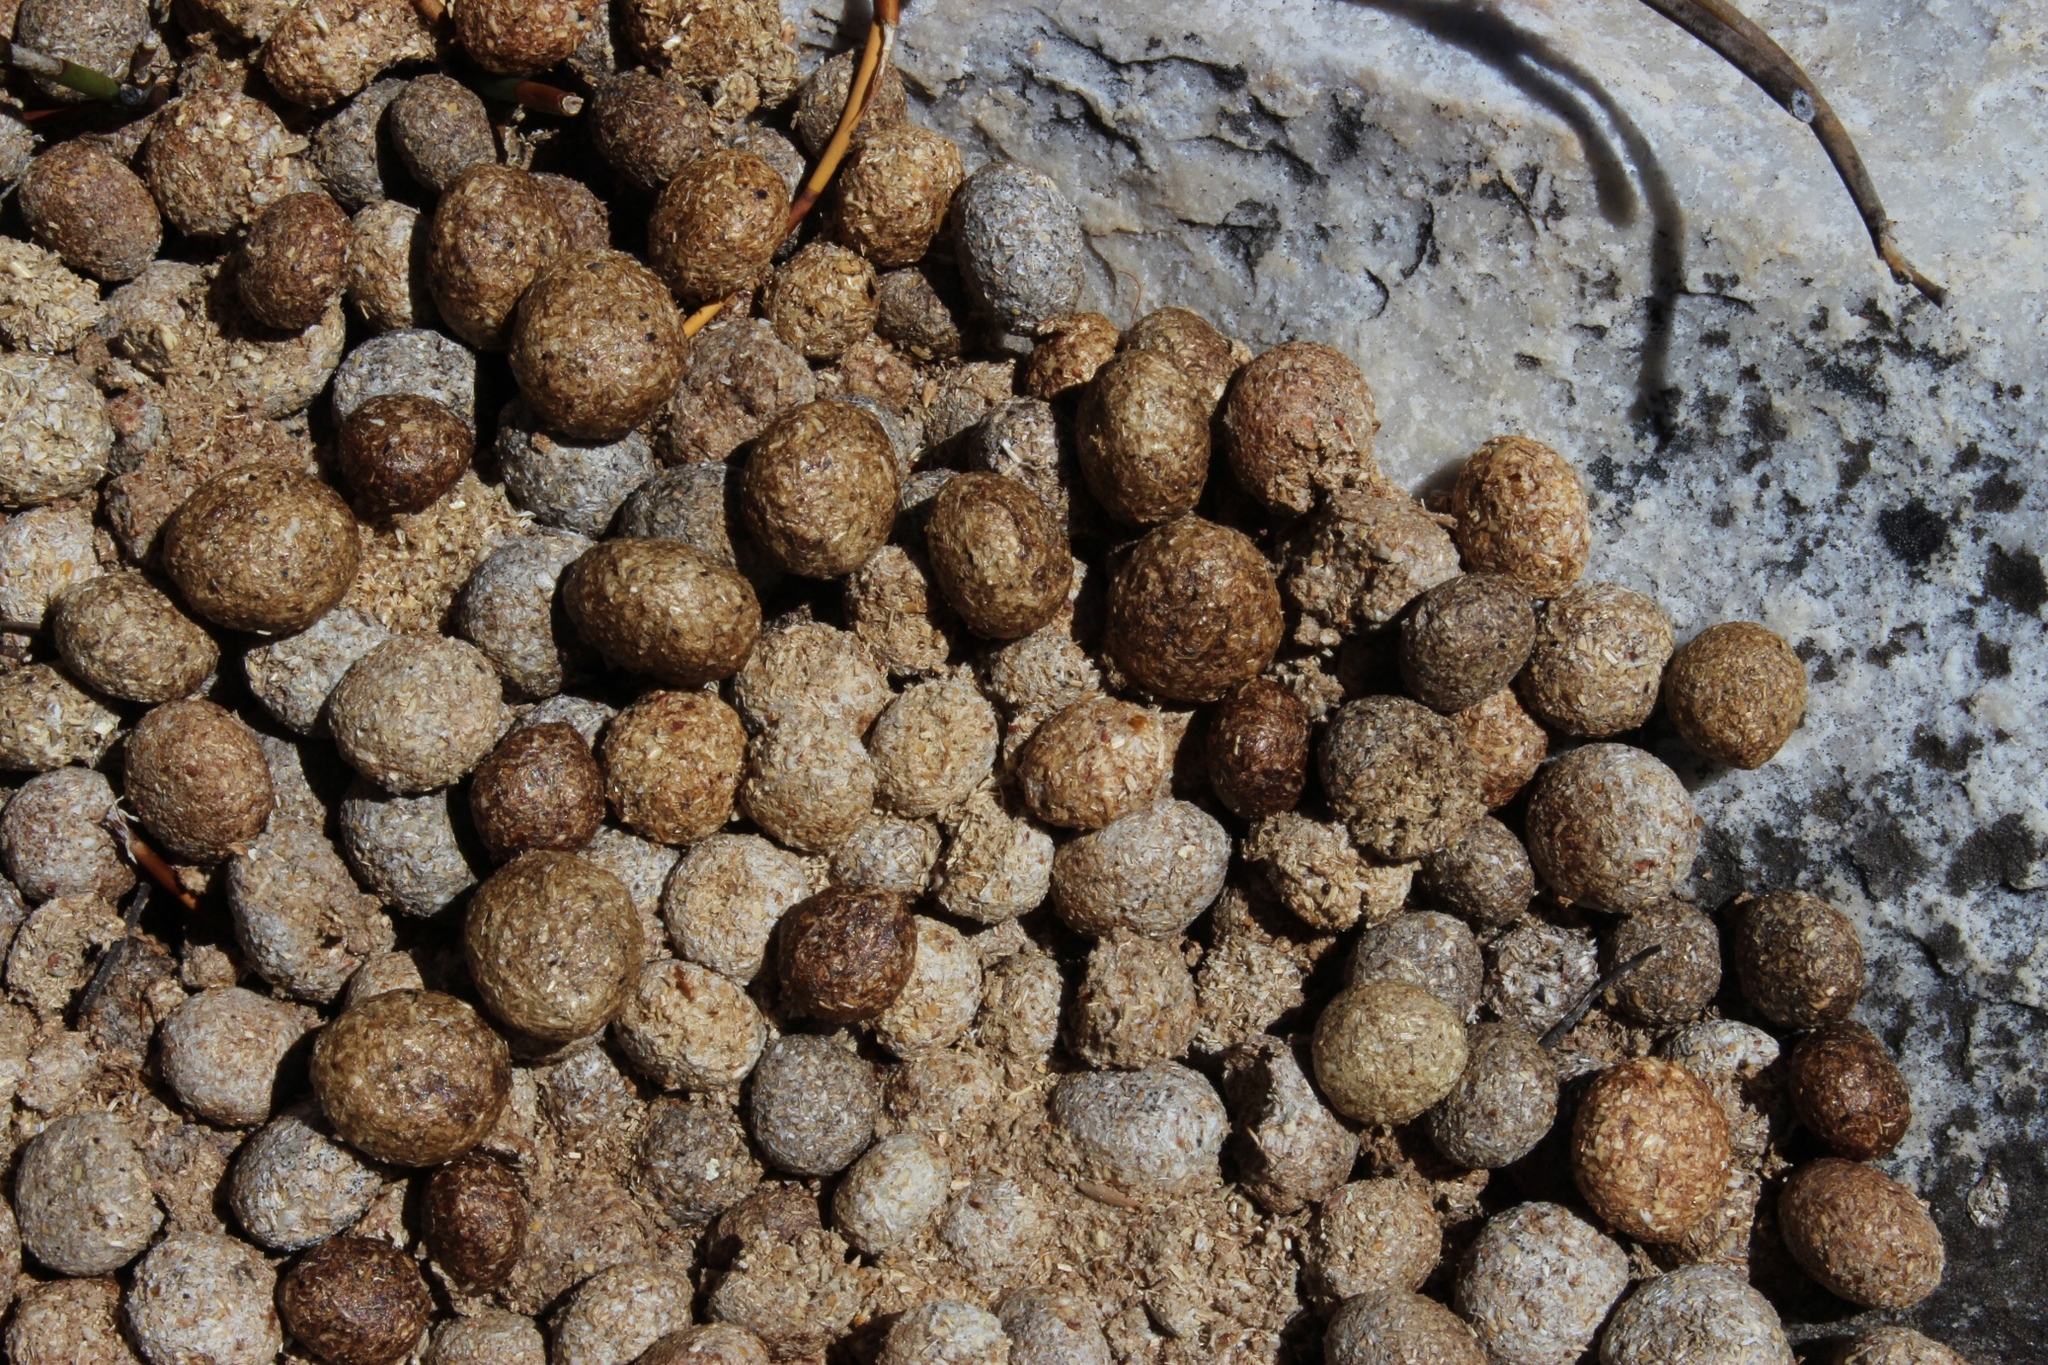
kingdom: Animalia
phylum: Chordata
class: Mammalia
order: Lagomorpha
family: Leporidae
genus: Pronolagus
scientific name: Pronolagus saundersiae
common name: Hewitt's red rock hare
